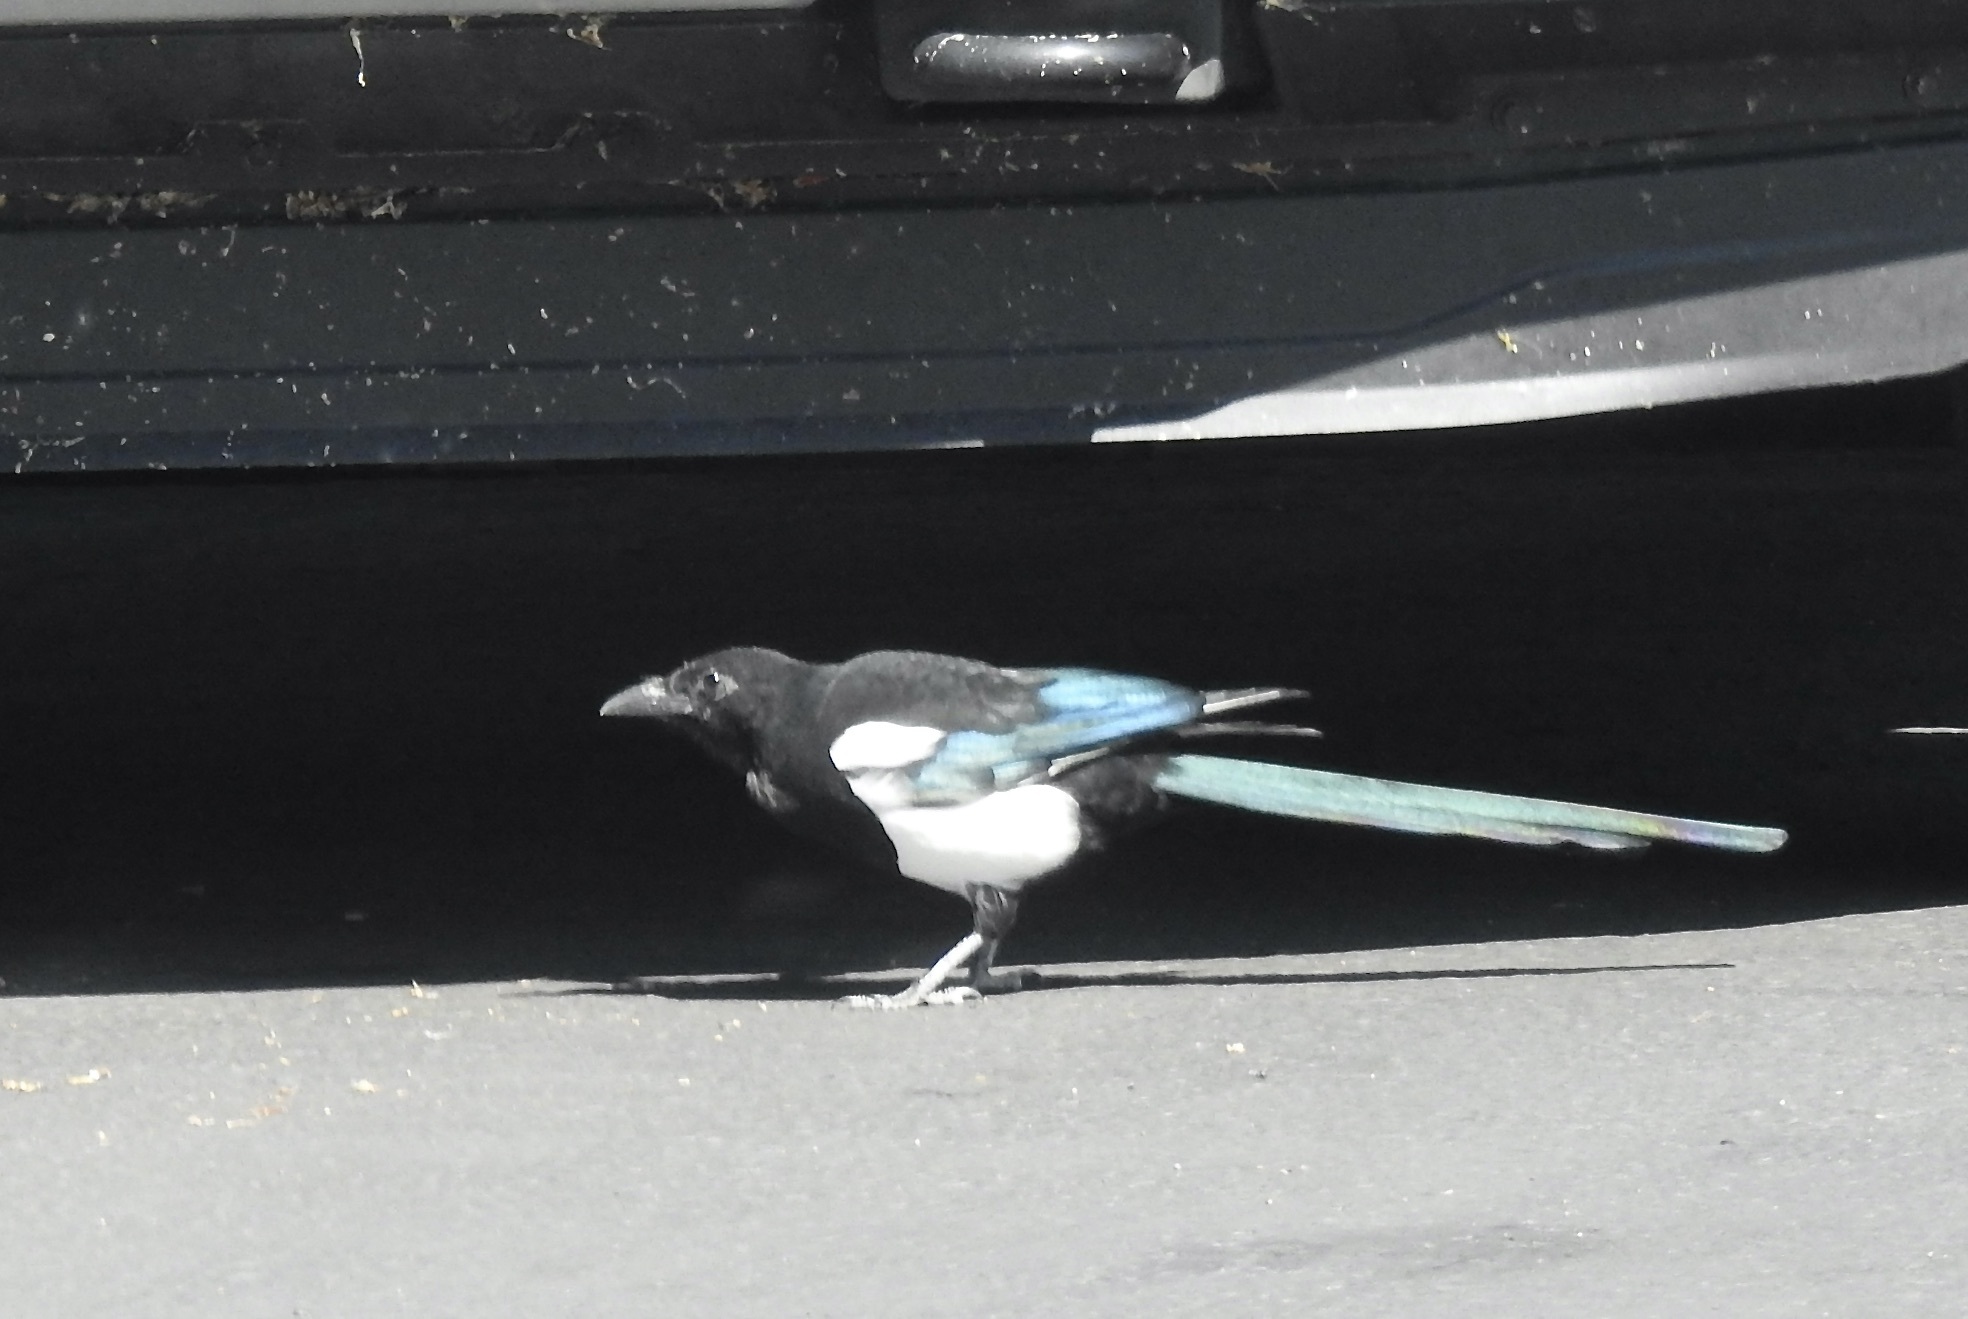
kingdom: Animalia
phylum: Chordata
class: Aves
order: Passeriformes
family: Corvidae
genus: Pica
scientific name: Pica hudsonia
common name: Black-billed magpie
